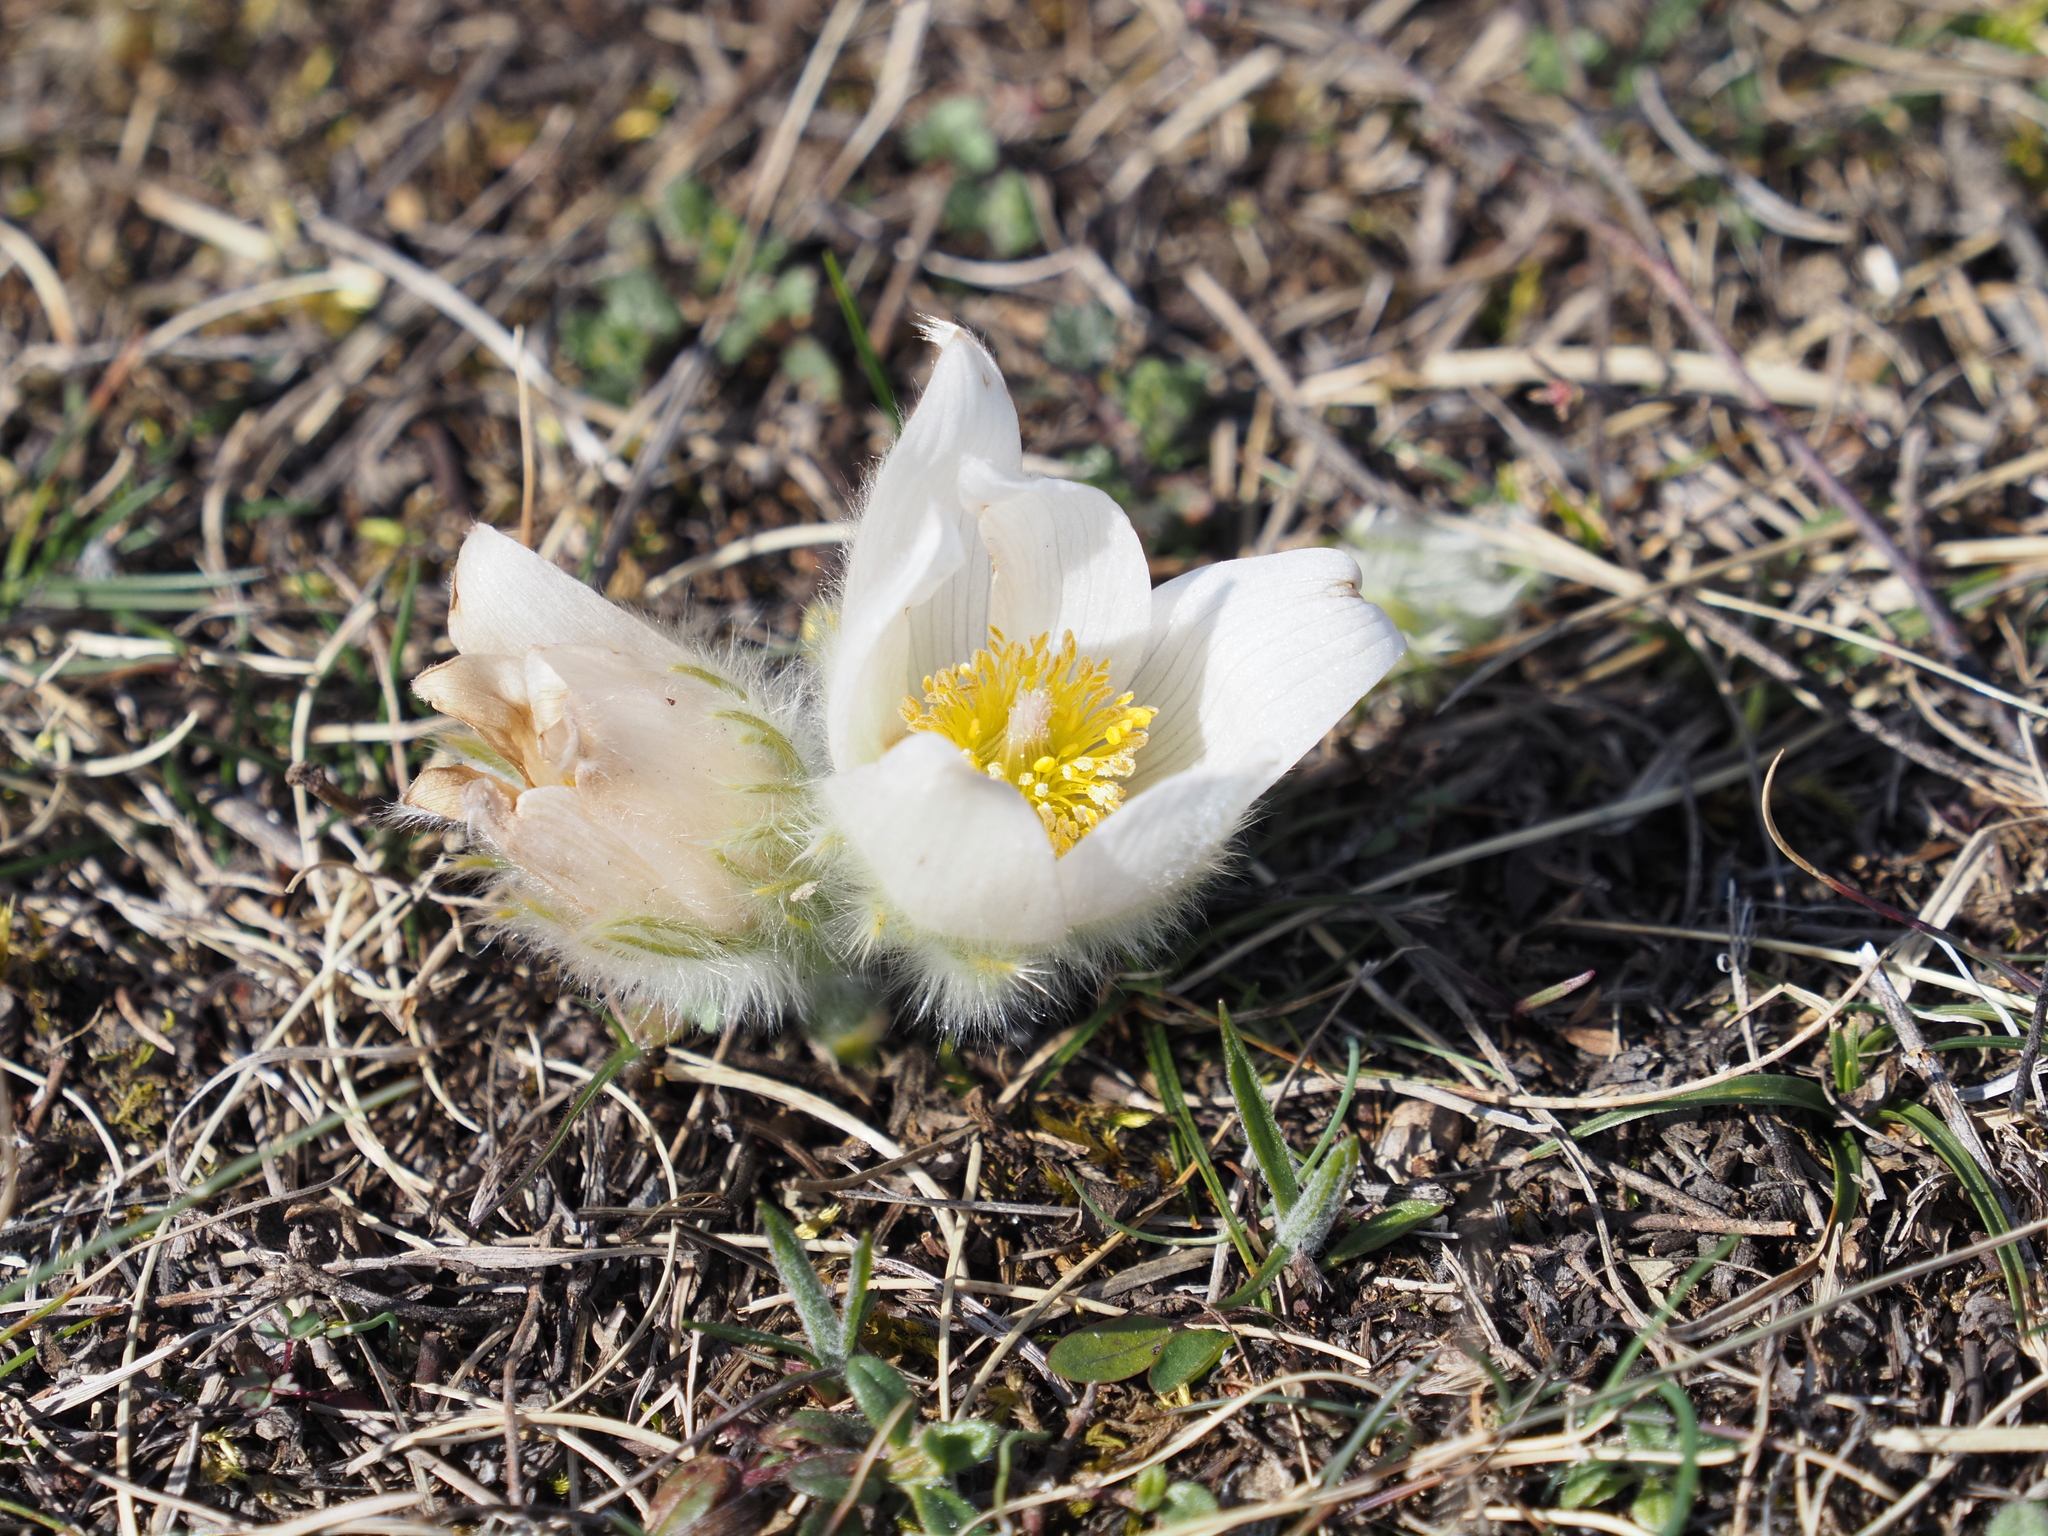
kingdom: Plantae
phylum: Tracheophyta
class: Magnoliopsida
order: Ranunculales
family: Ranunculaceae
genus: Pulsatilla
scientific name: Pulsatilla grandis
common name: Greater pasque flower
